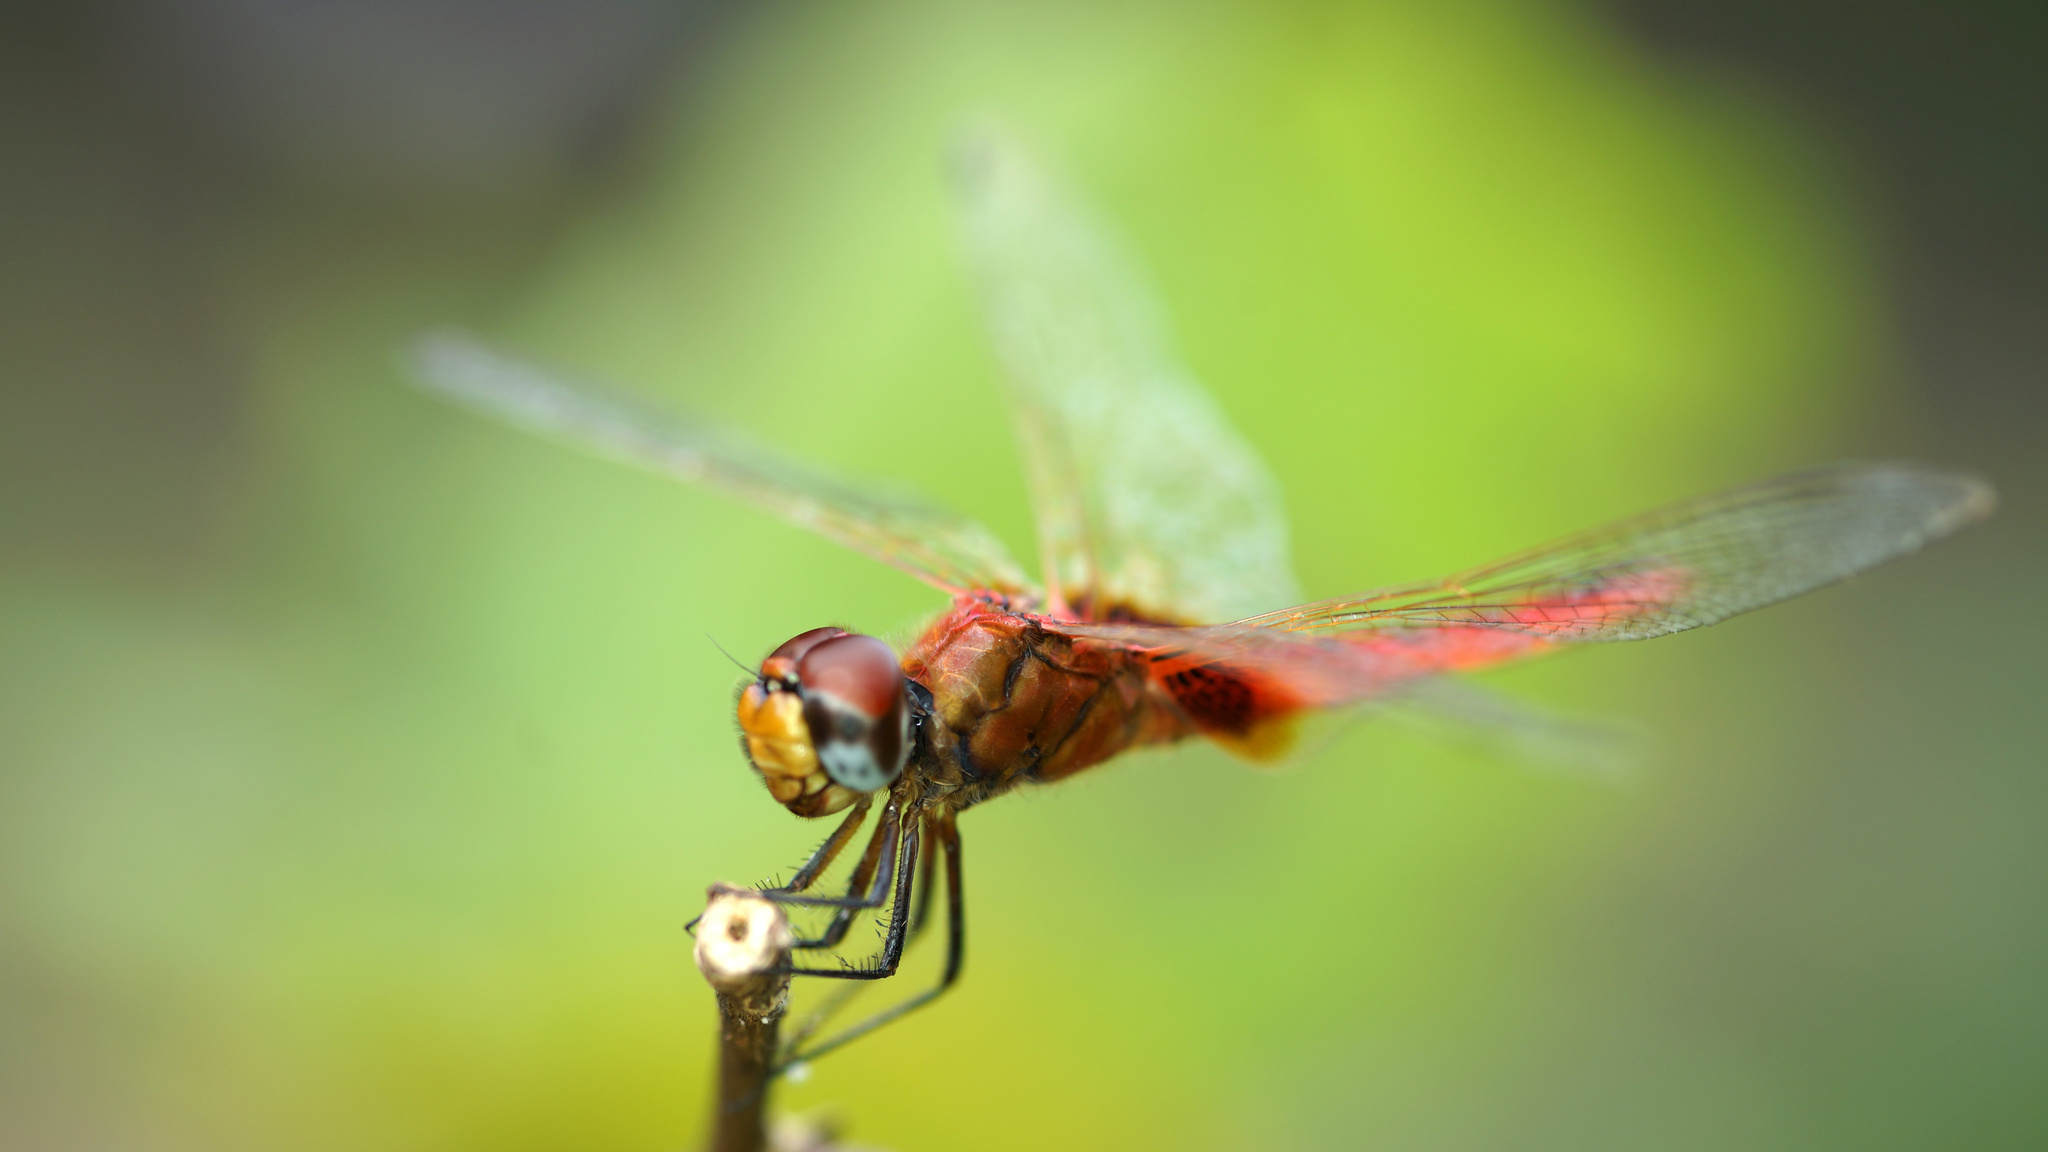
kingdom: Animalia
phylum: Arthropoda
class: Insecta
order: Odonata
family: Libellulidae
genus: Urothemis
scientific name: Urothemis signata
